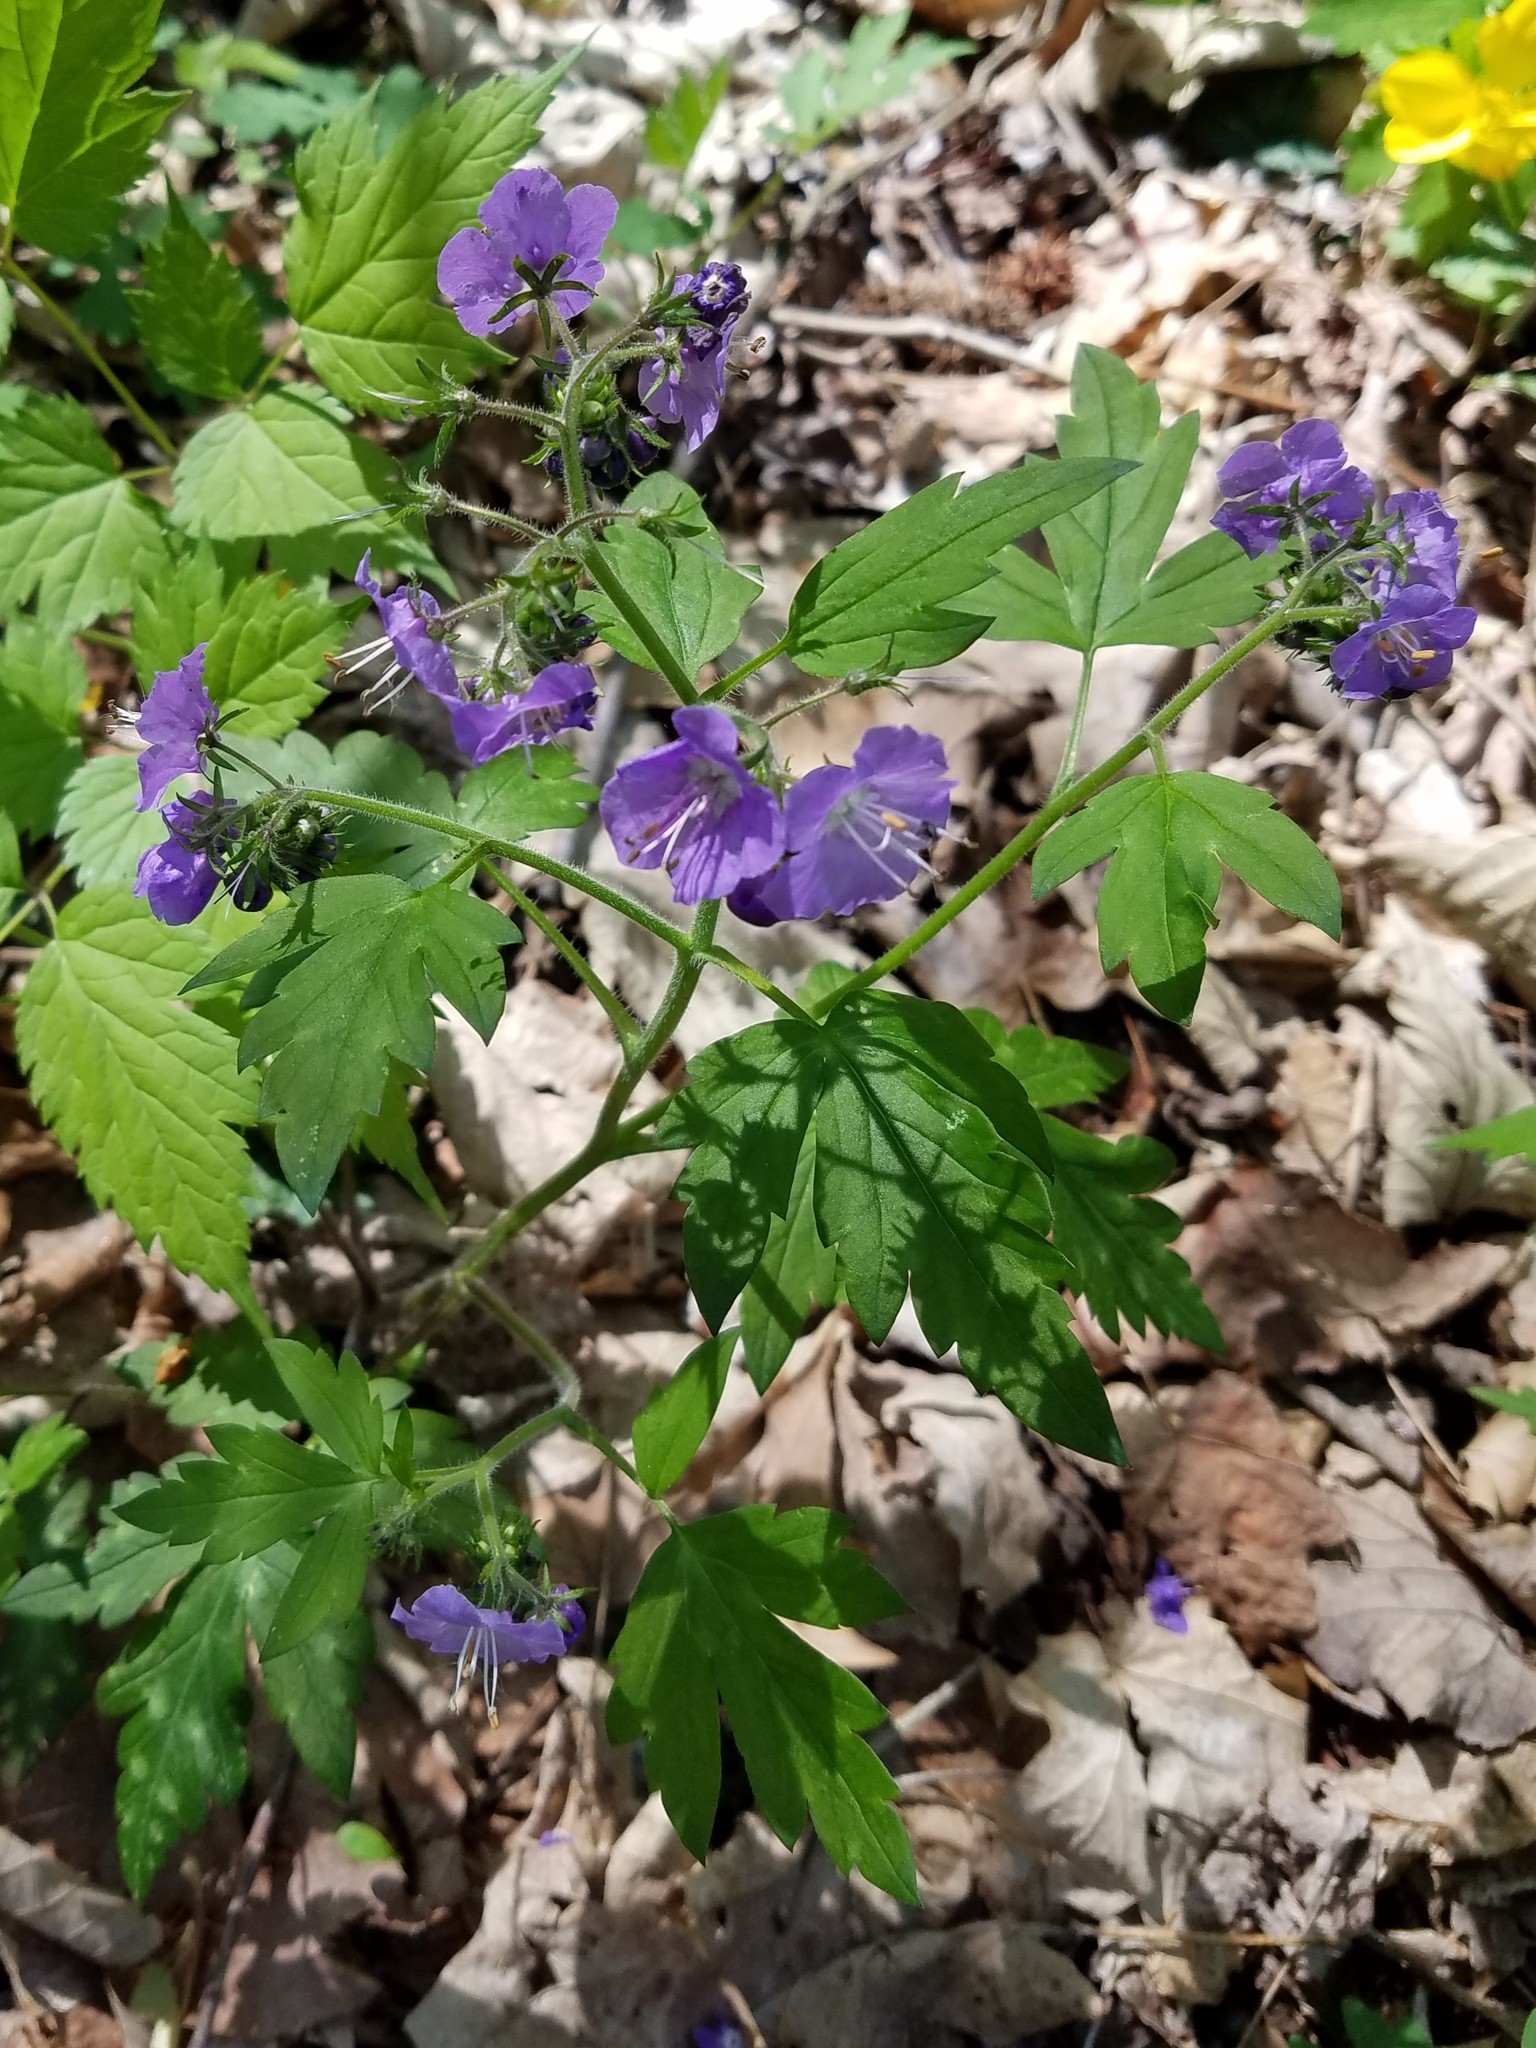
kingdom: Plantae
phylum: Tracheophyta
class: Magnoliopsida
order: Boraginales
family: Hydrophyllaceae
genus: Phacelia
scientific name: Phacelia bipinnatifida
